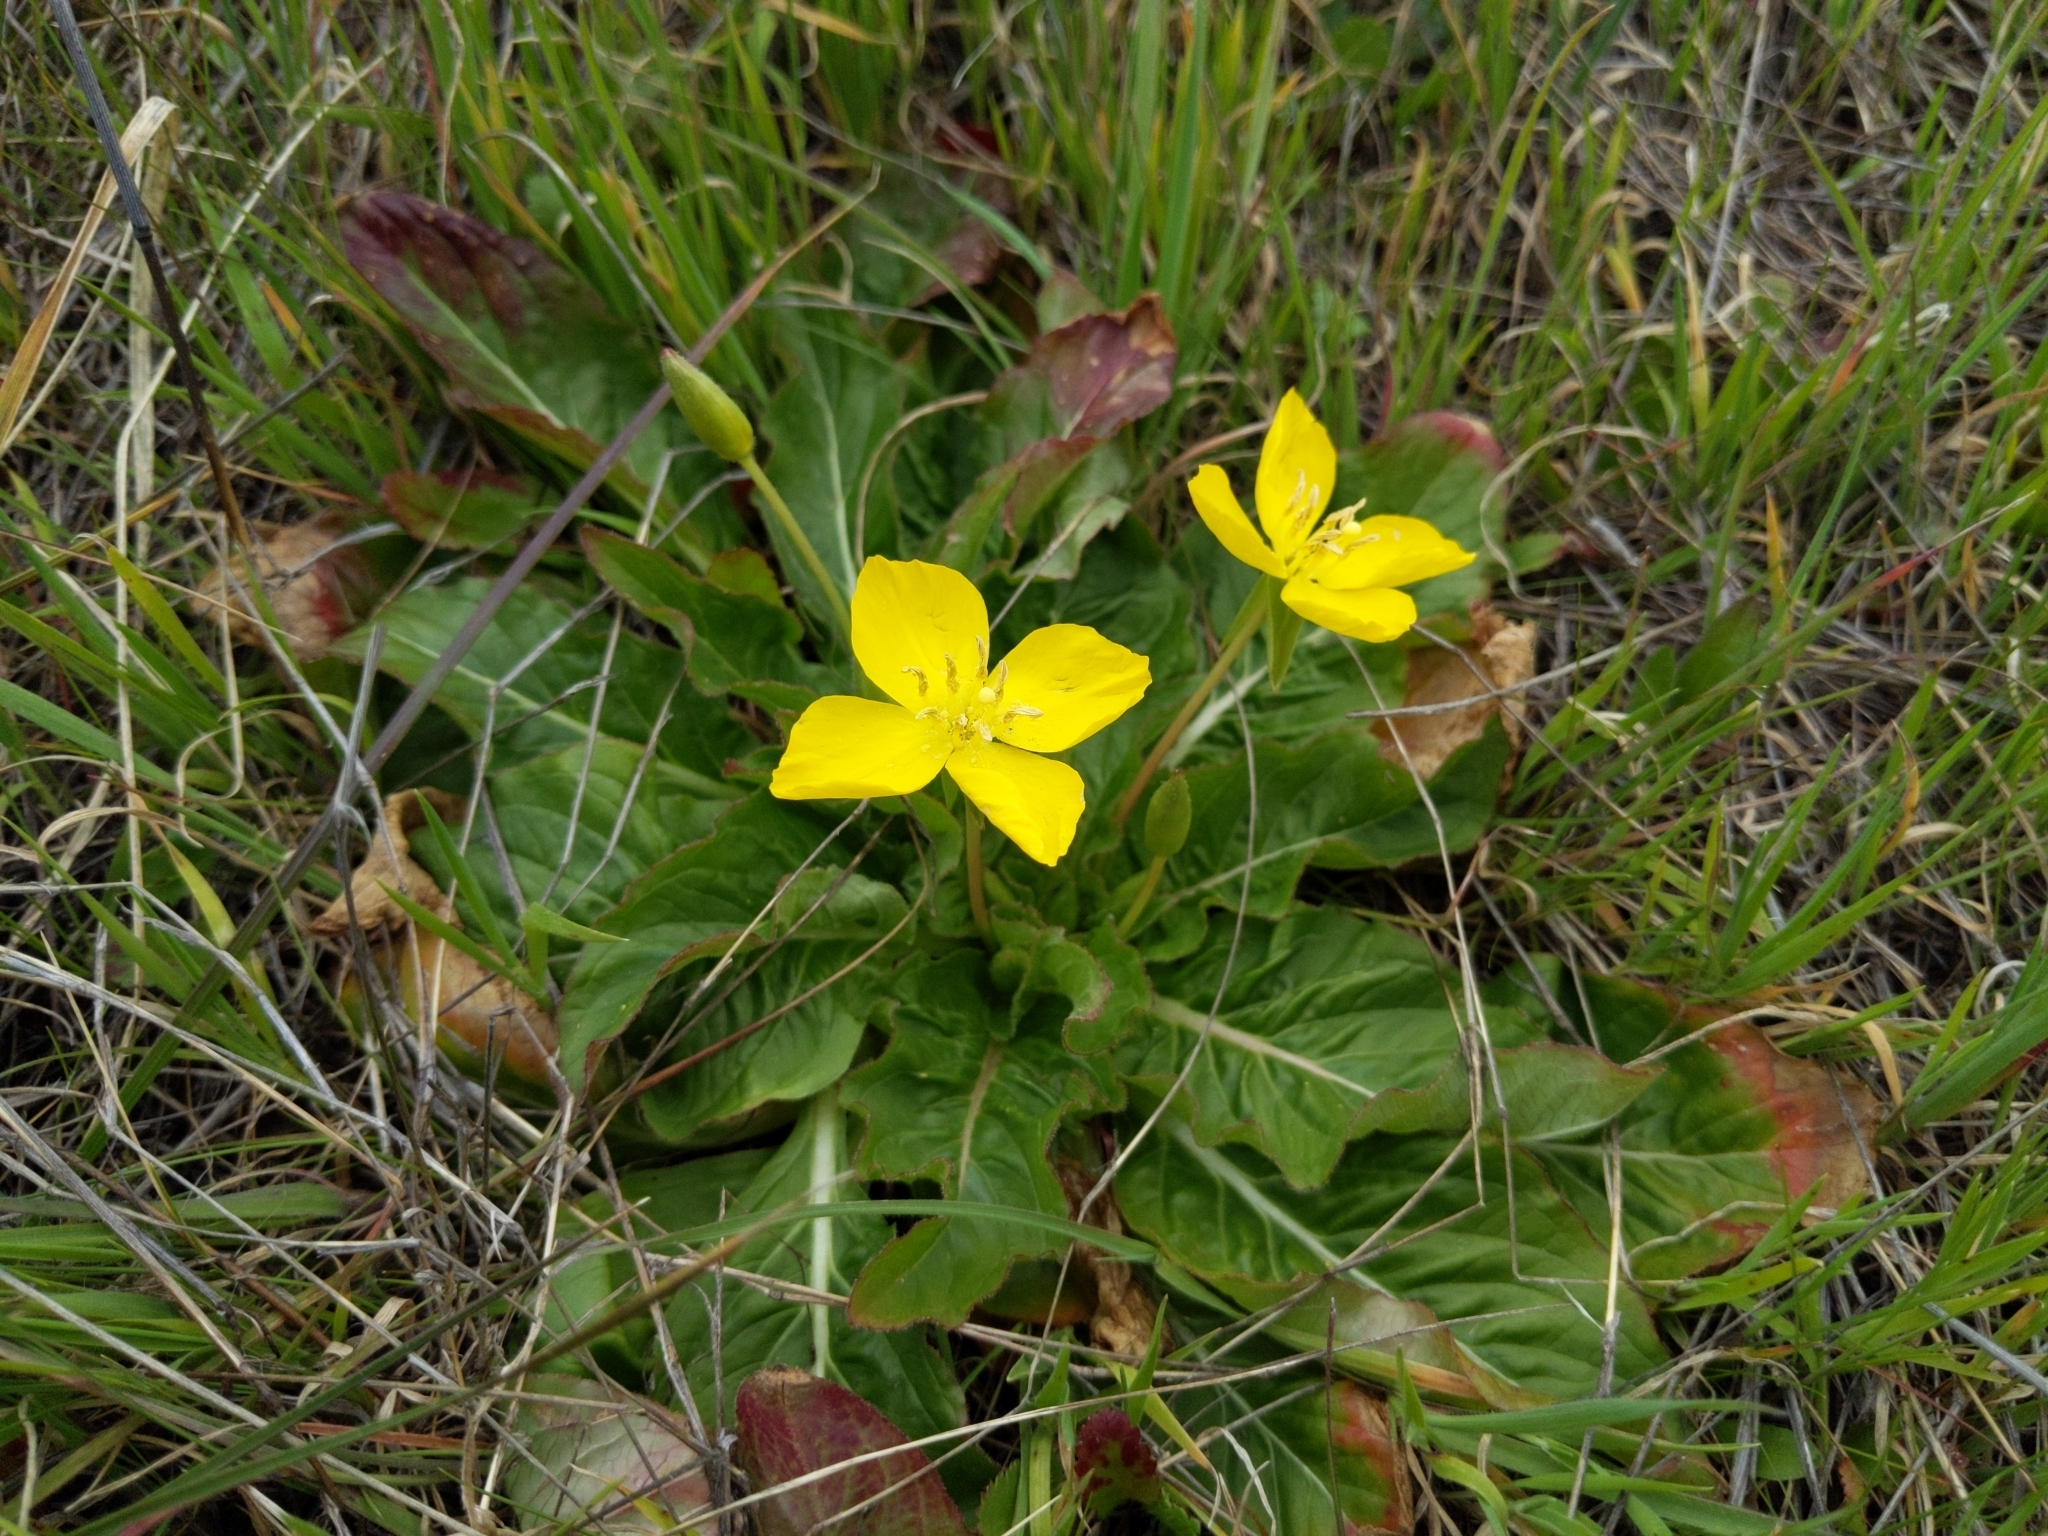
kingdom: Plantae
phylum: Tracheophyta
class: Magnoliopsida
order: Myrtales
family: Onagraceae
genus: Taraxia
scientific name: Taraxia ovata
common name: Goldeneggs
